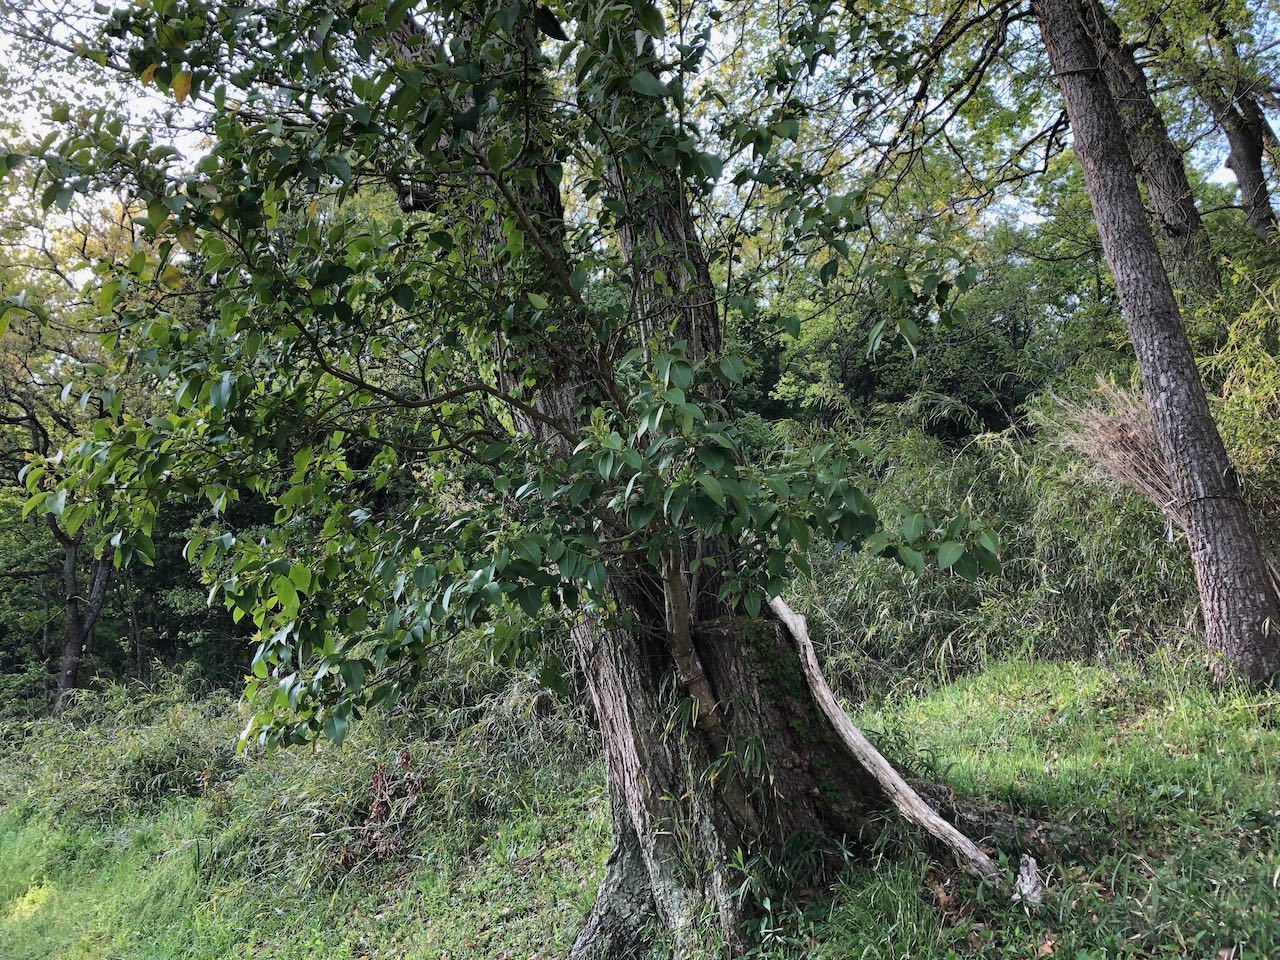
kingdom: Plantae
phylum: Tracheophyta
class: Magnoliopsida
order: Lamiales
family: Oleaceae
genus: Ligustrum
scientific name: Ligustrum lucidum
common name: Glossy privet
